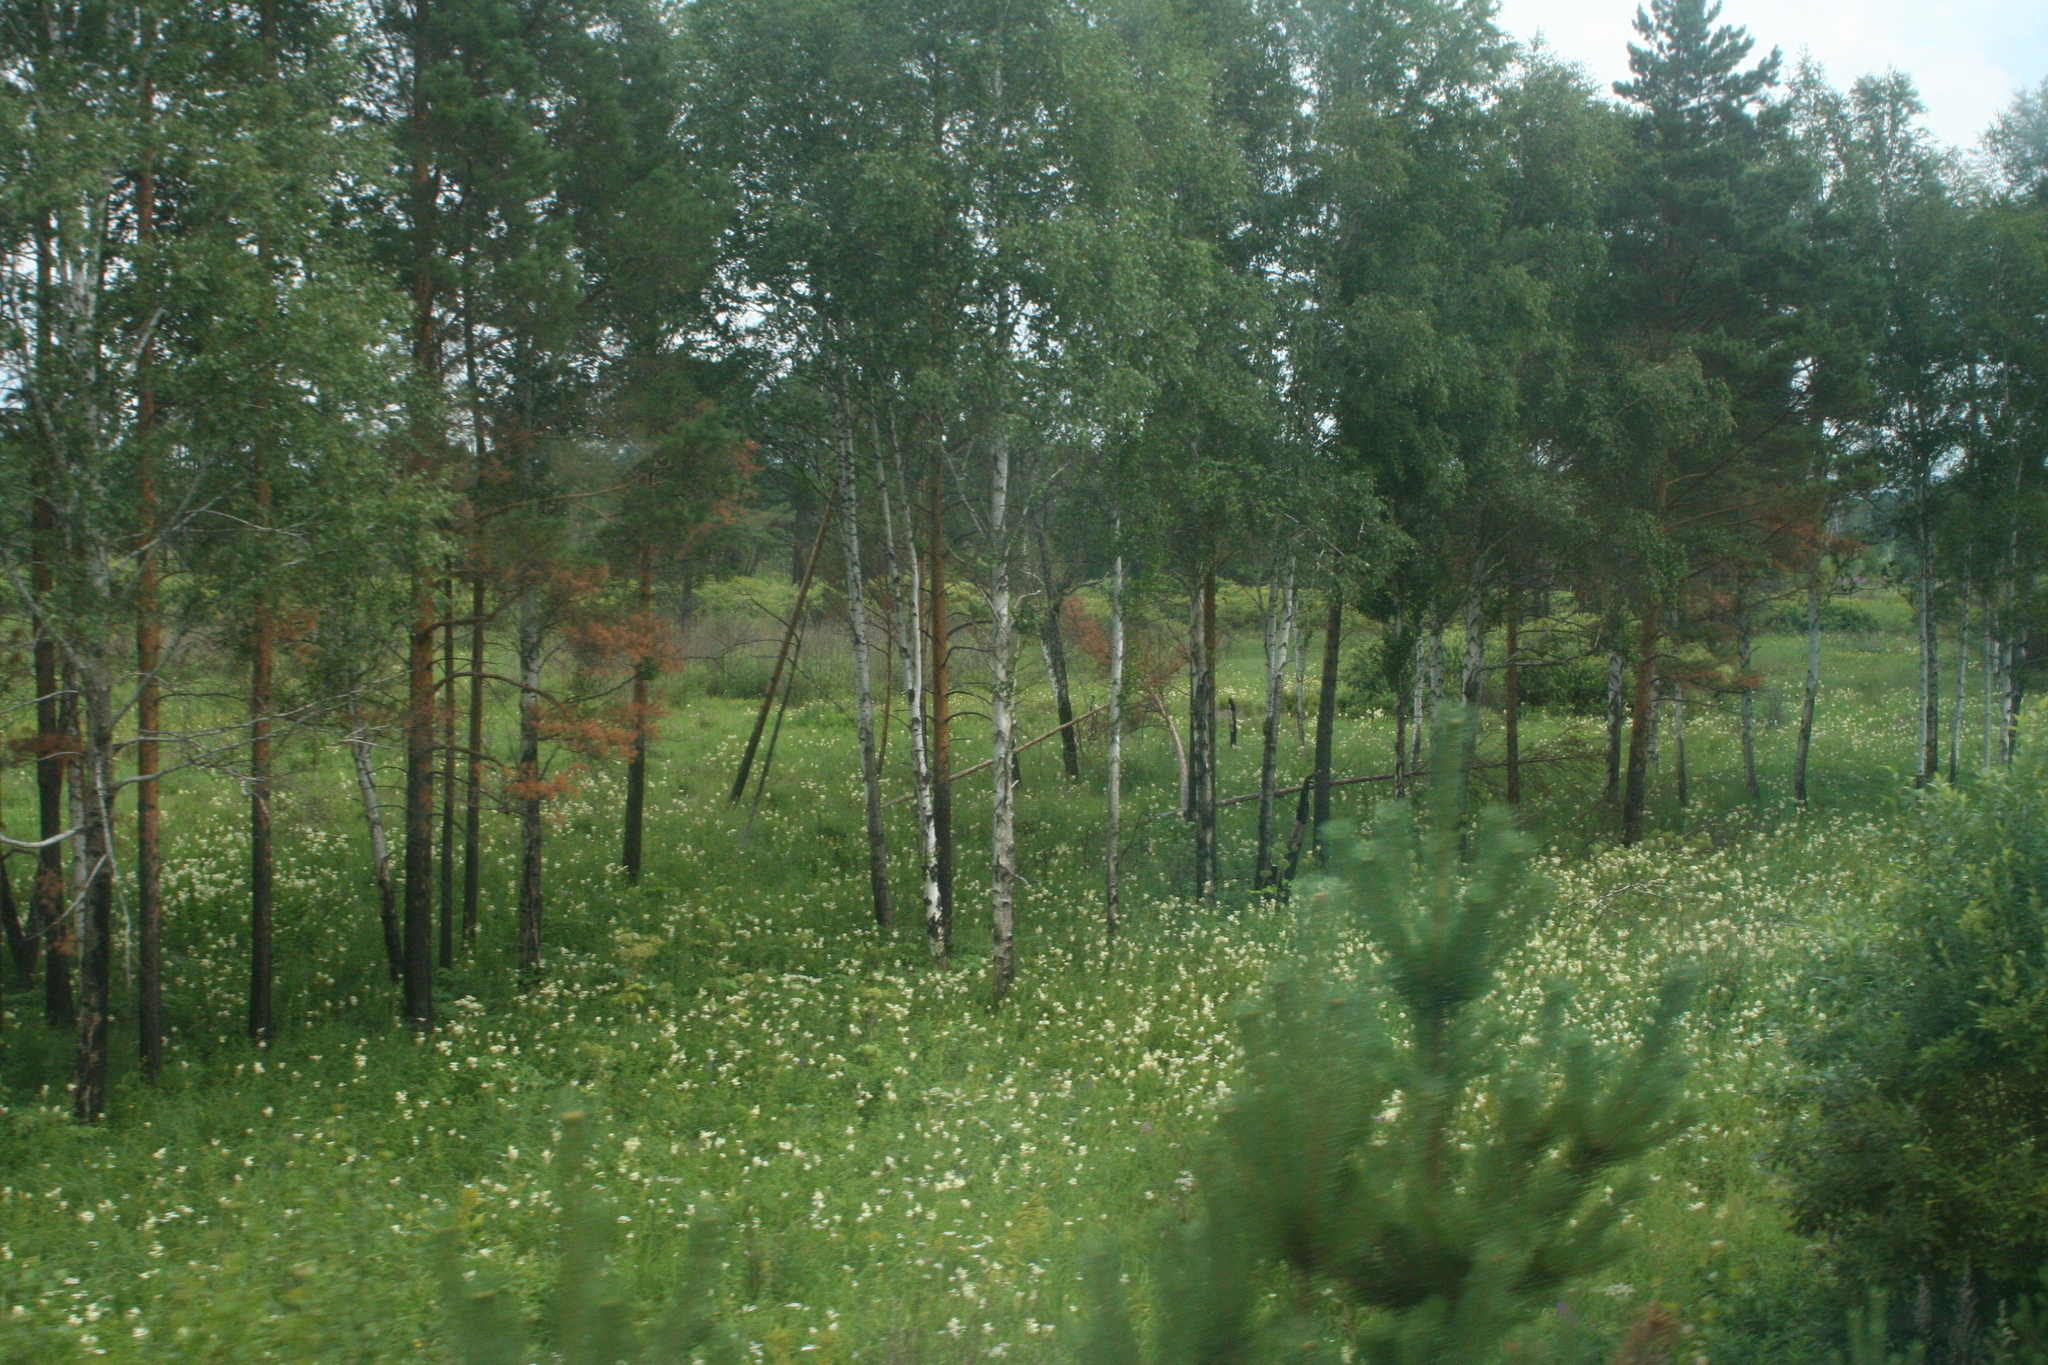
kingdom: Plantae
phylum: Tracheophyta
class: Pinopsida
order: Pinales
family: Pinaceae
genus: Pinus
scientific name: Pinus sylvestris
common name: Scots pine
